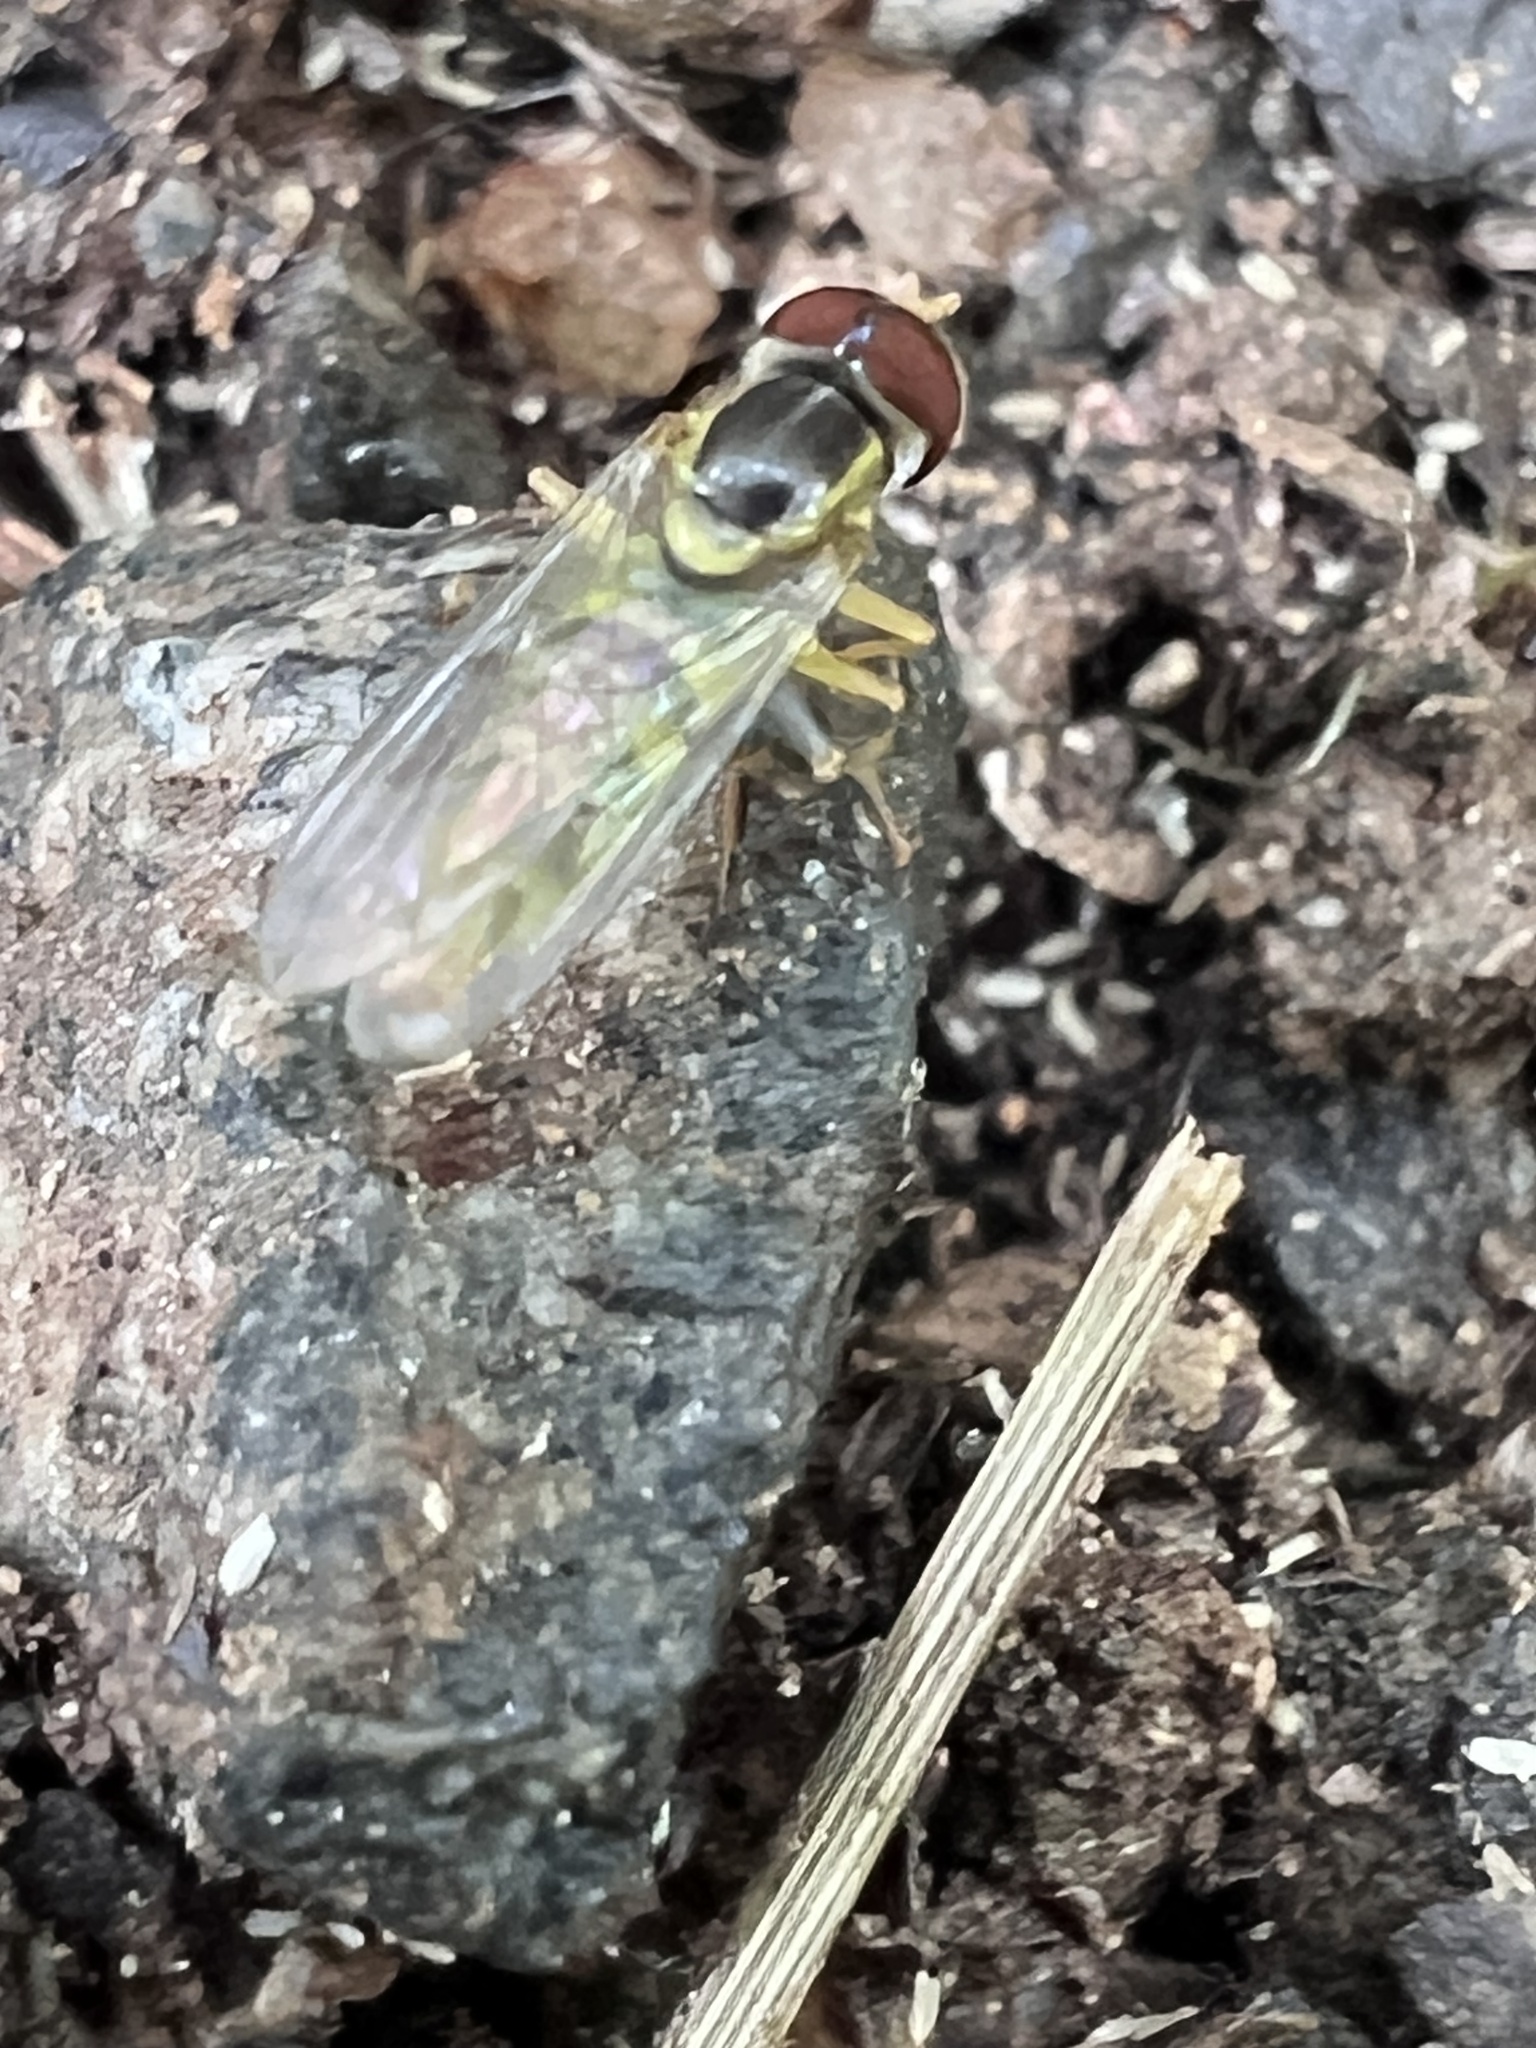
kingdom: Animalia
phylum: Arthropoda
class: Insecta
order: Diptera
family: Syrphidae
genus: Toxomerus
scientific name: Toxomerus geminatus
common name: Eastern calligrapher
